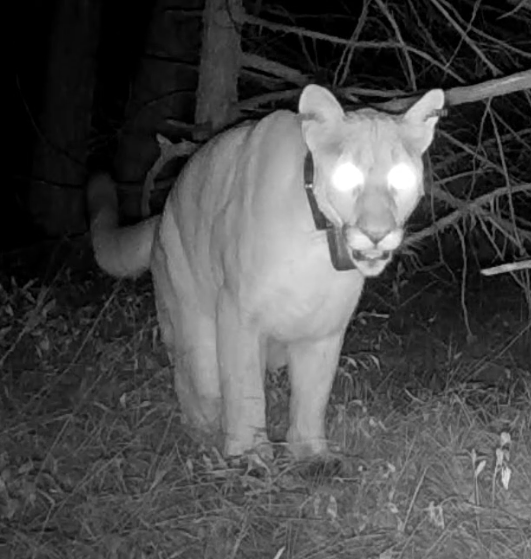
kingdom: Animalia
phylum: Chordata
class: Mammalia
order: Carnivora
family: Felidae
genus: Puma
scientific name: Puma concolor
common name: Puma
